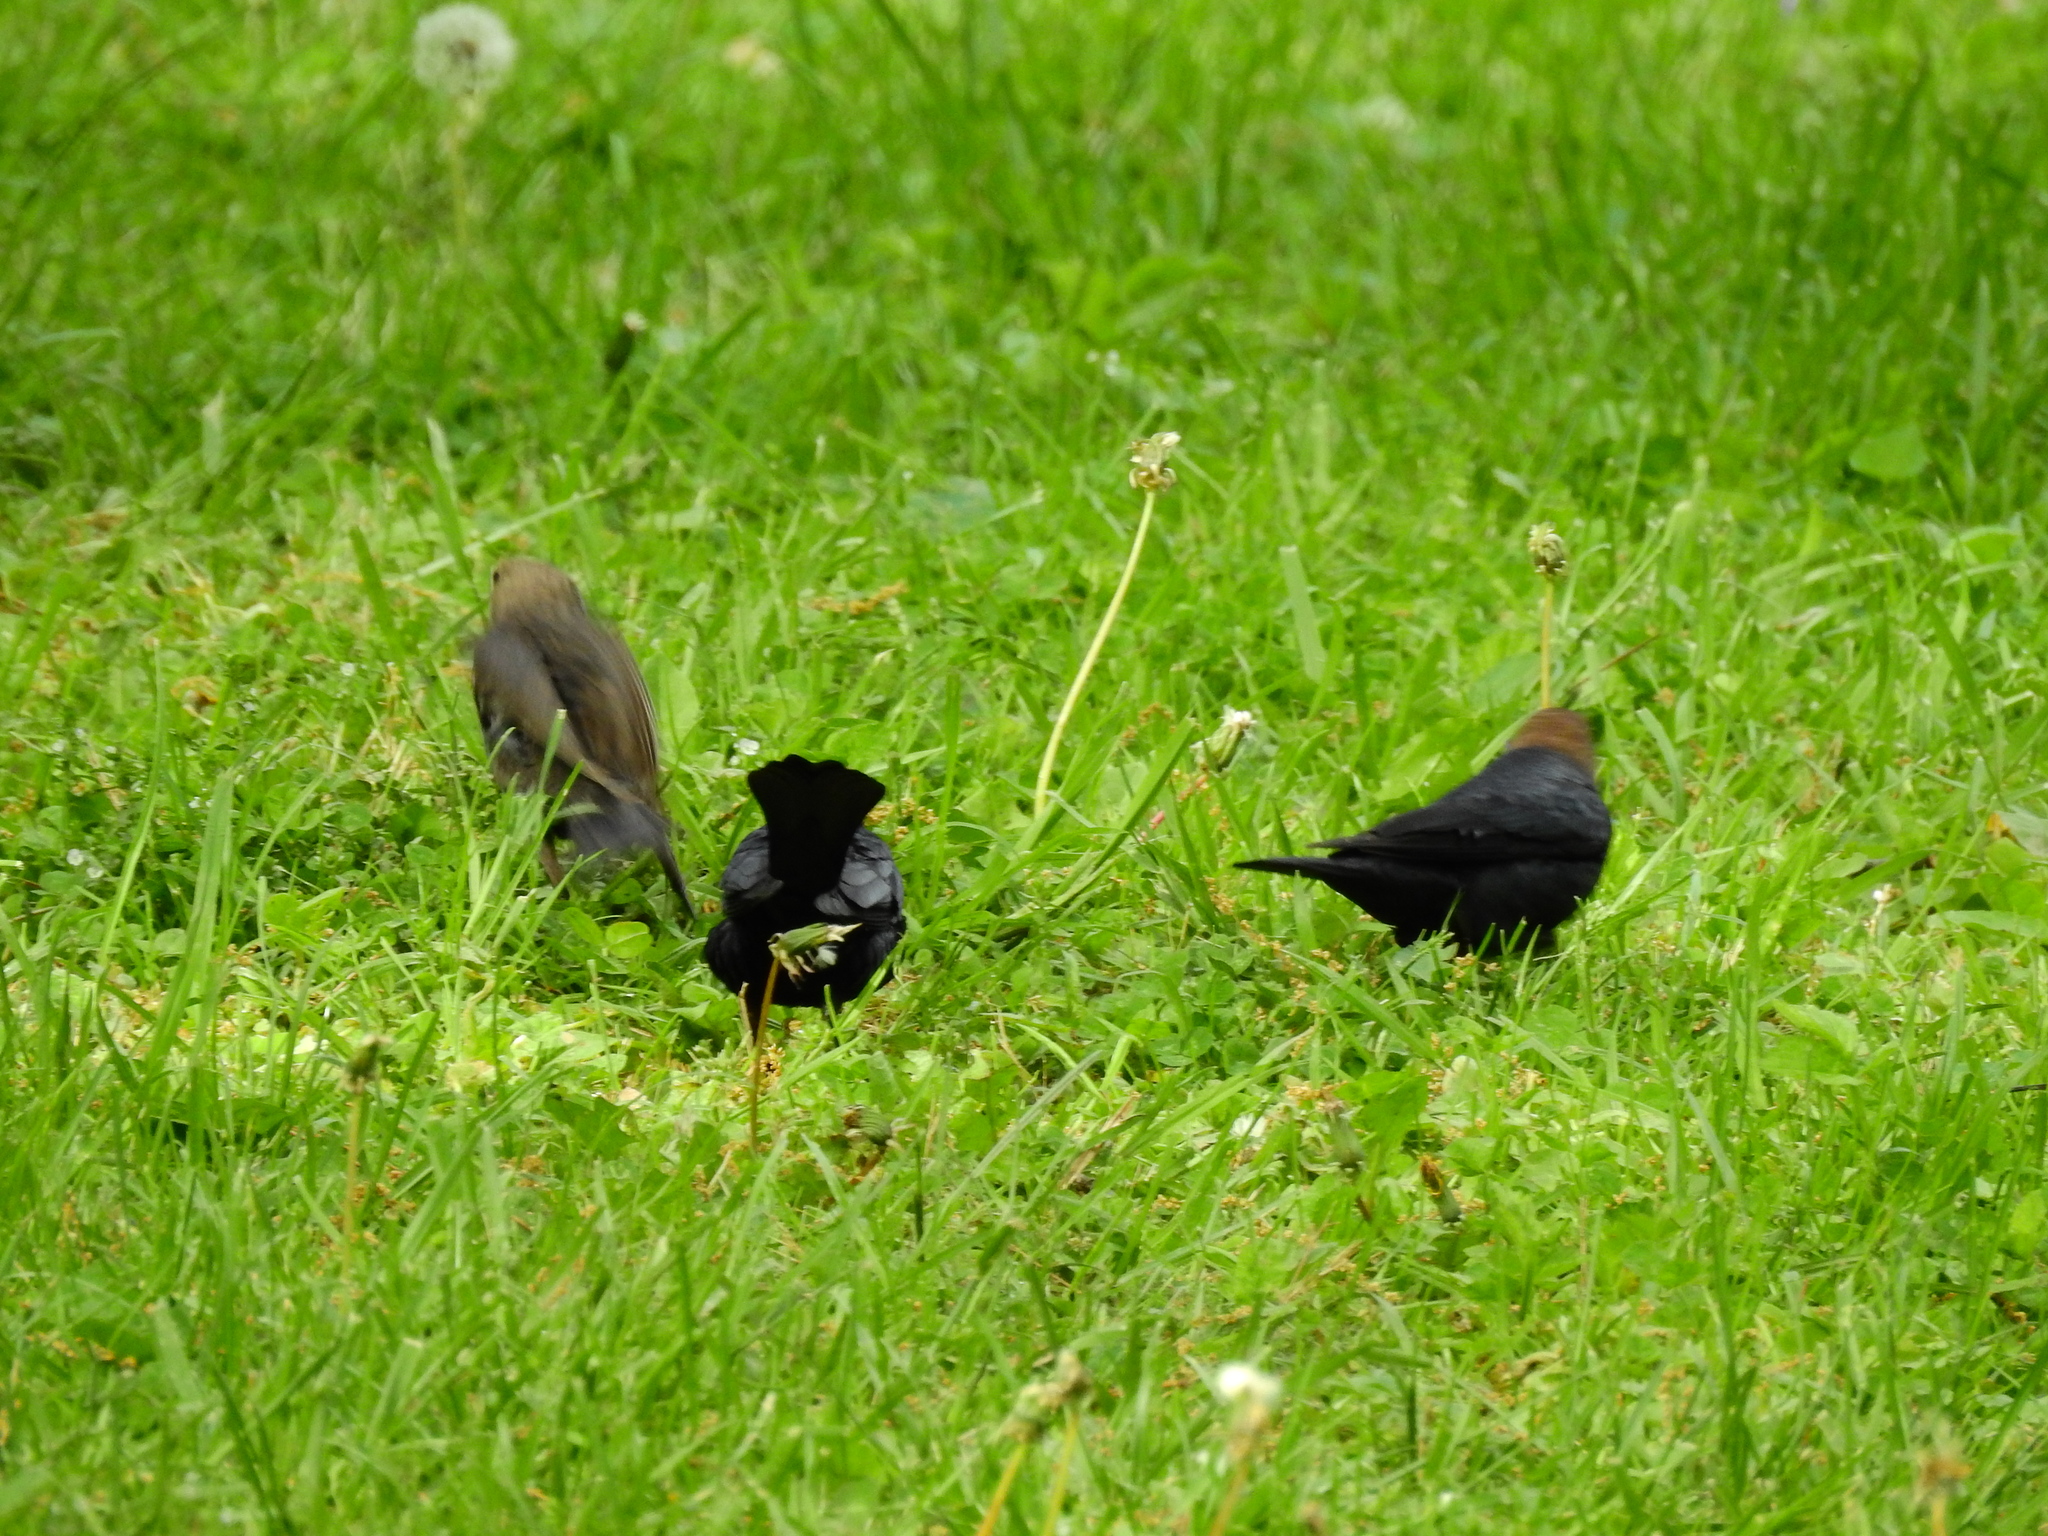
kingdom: Animalia
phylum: Chordata
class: Aves
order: Passeriformes
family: Icteridae
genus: Molothrus
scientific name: Molothrus ater
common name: Brown-headed cowbird
